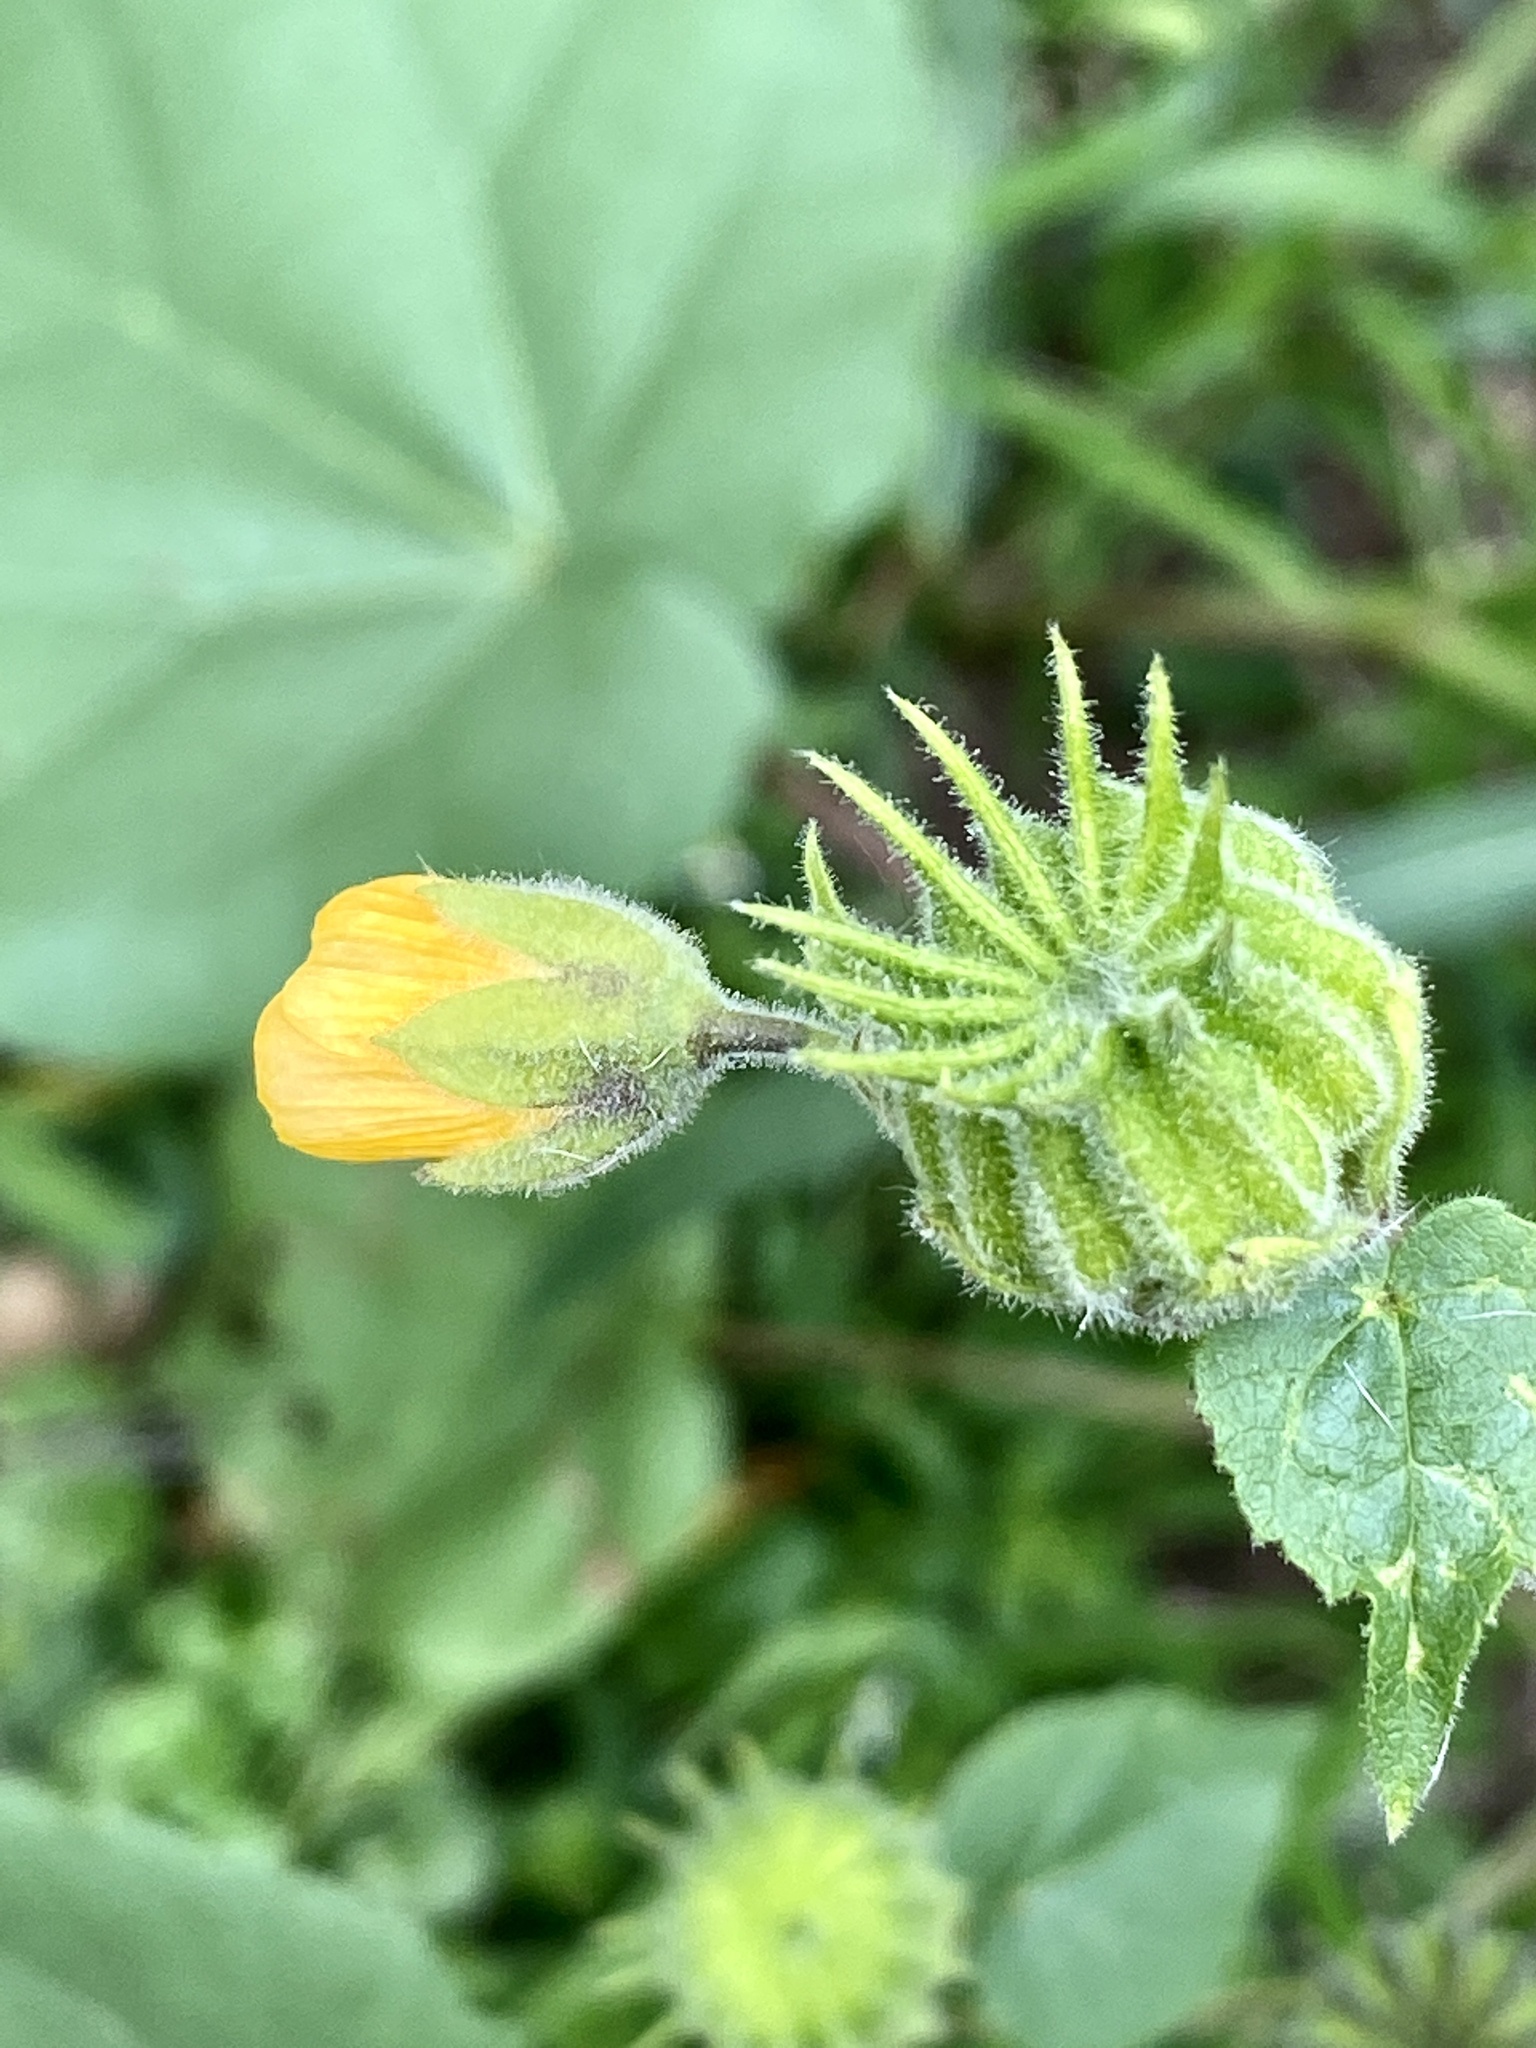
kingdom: Plantae
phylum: Tracheophyta
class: Magnoliopsida
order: Malvales
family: Malvaceae
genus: Abutilon
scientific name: Abutilon theophrasti
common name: Velvetleaf
